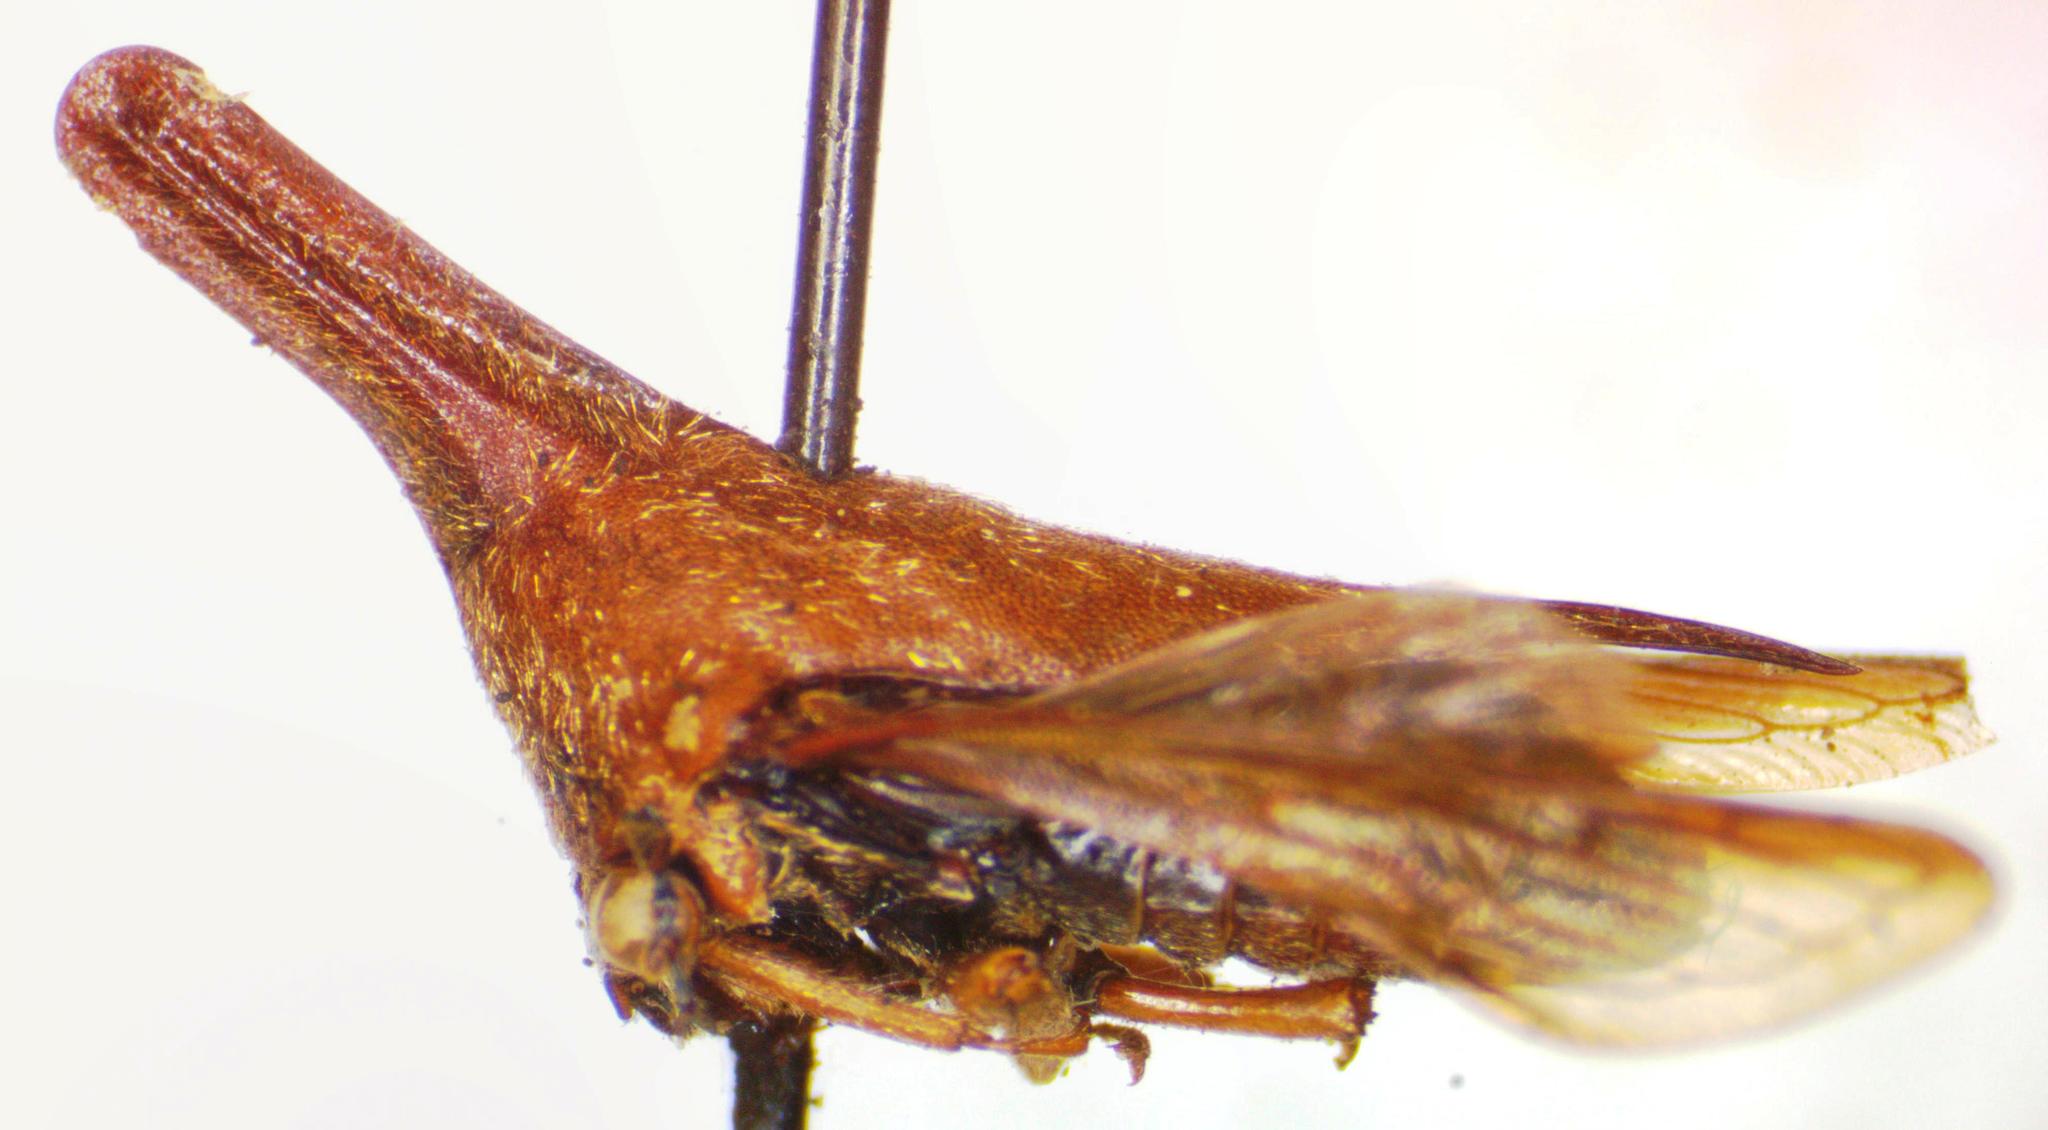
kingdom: Animalia
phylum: Arthropoda
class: Insecta
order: Hemiptera
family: Membracidae
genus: Aconophora
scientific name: Aconophora laminata
